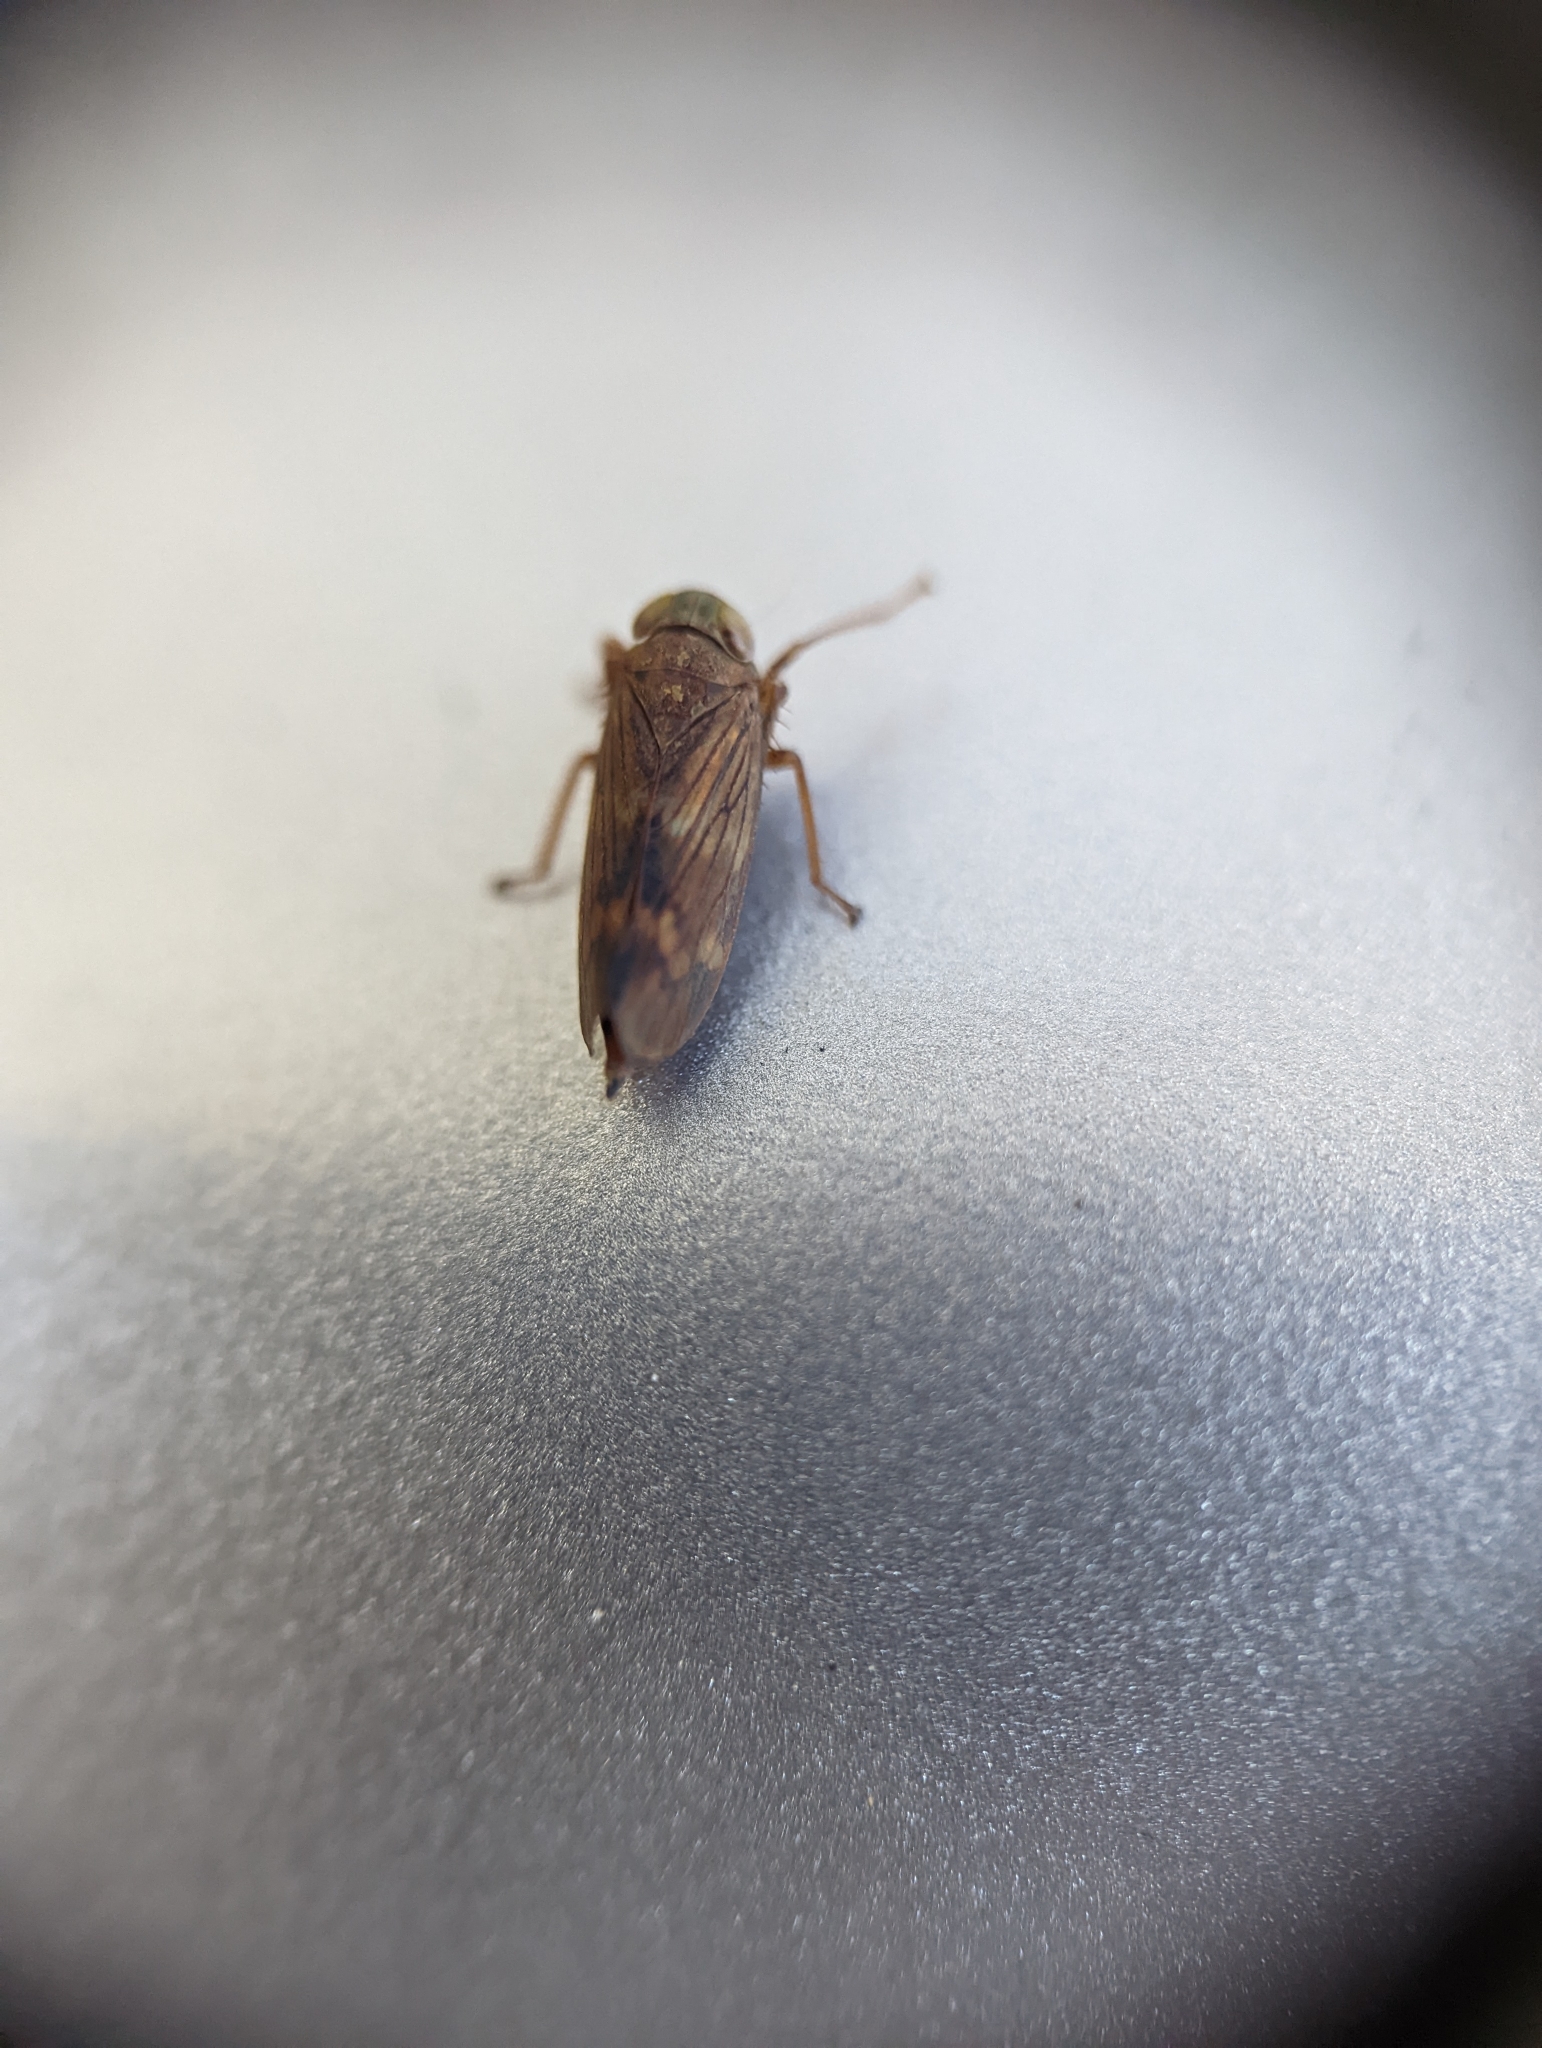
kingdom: Animalia
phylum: Arthropoda
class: Insecta
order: Hemiptera
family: Cicadellidae
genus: Jikradia
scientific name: Jikradia olitoria
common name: Coppery leafhopper
